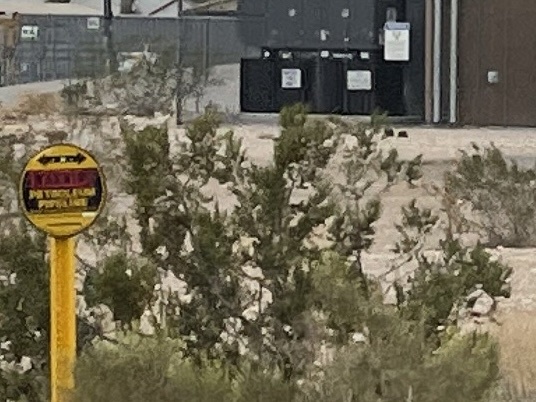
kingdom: Plantae
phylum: Tracheophyta
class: Magnoliopsida
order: Zygophyllales
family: Zygophyllaceae
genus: Larrea
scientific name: Larrea tridentata
